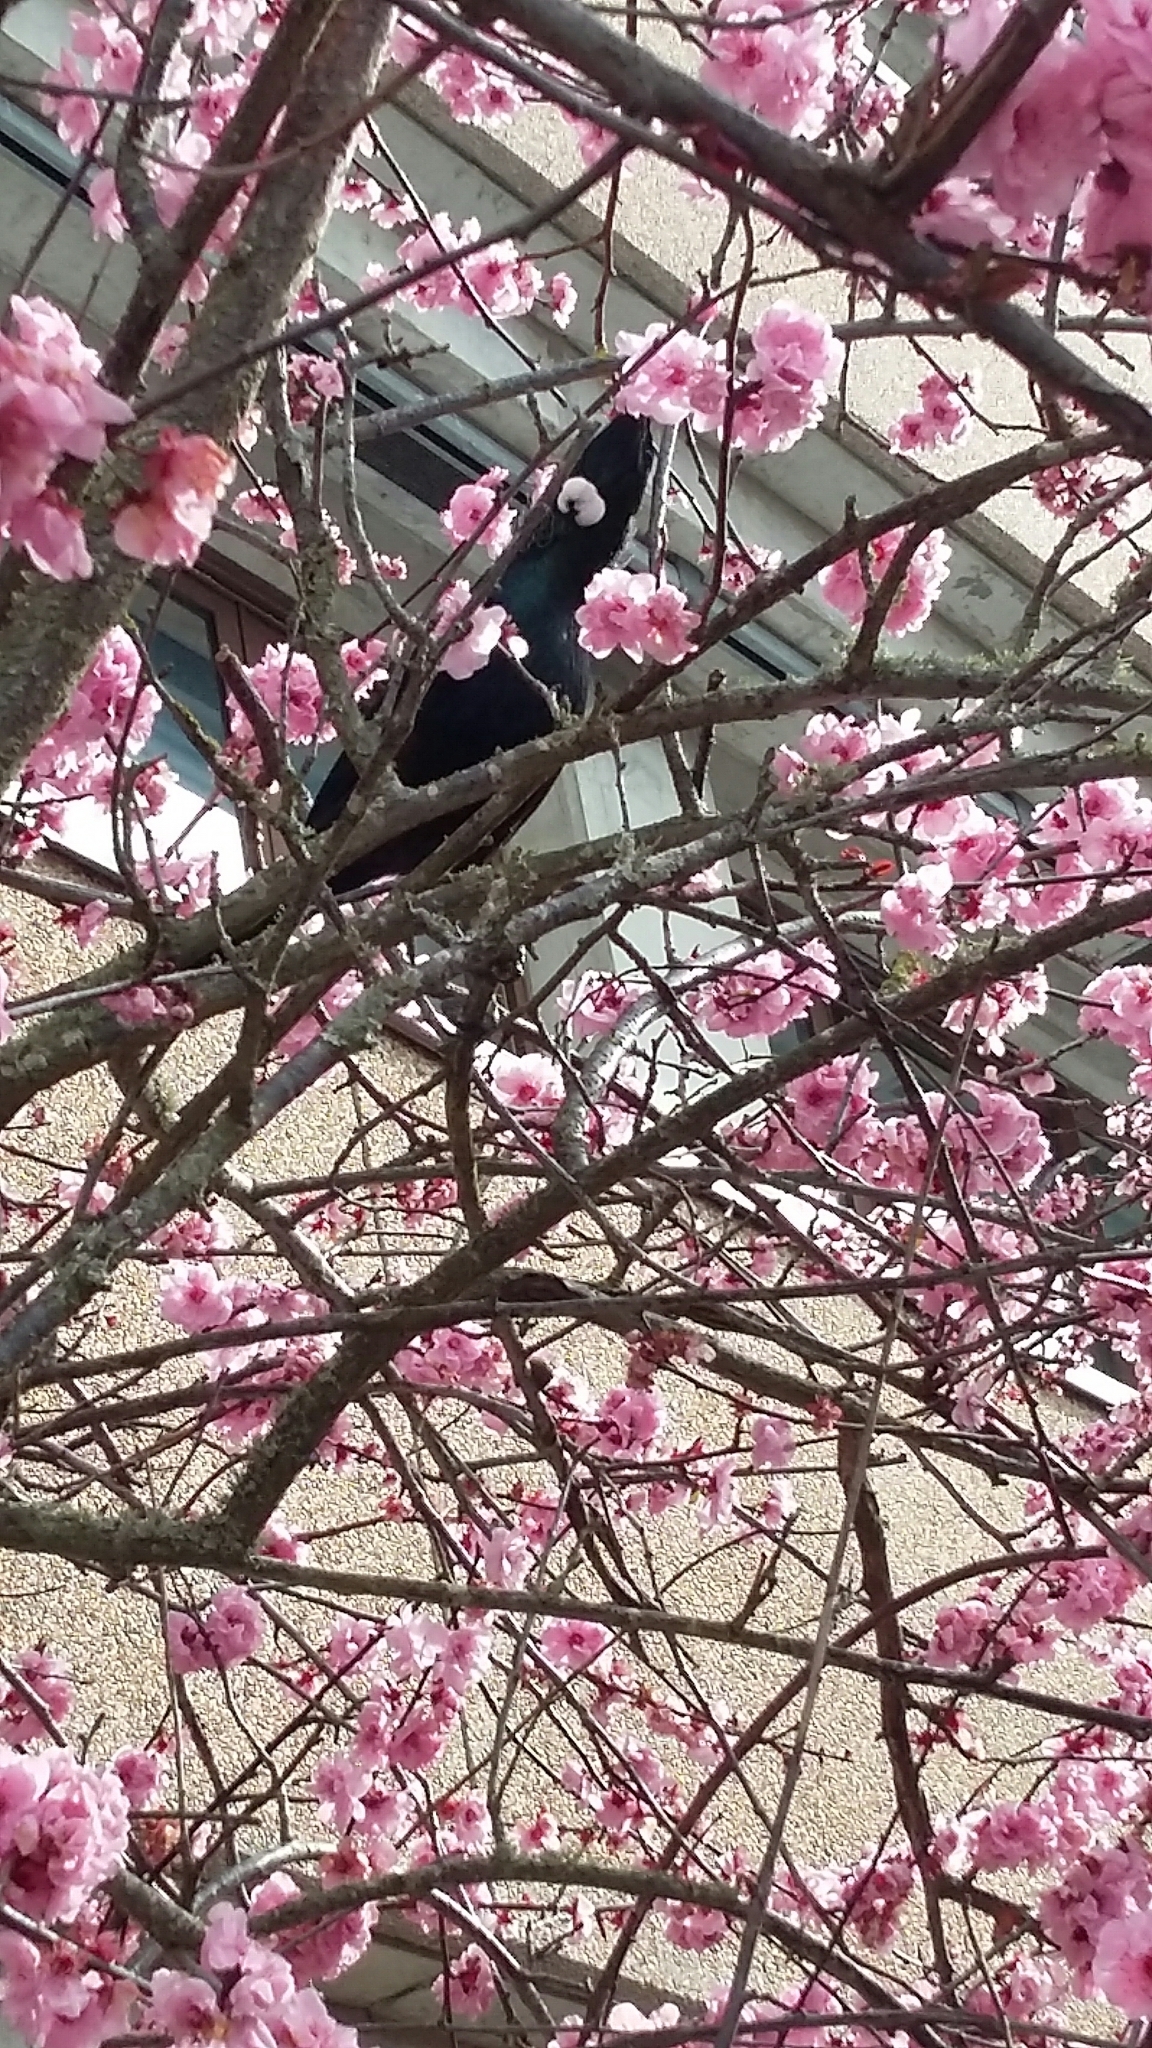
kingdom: Animalia
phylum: Chordata
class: Aves
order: Passeriformes
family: Meliphagidae
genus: Prosthemadera
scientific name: Prosthemadera novaeseelandiae
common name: Tui
